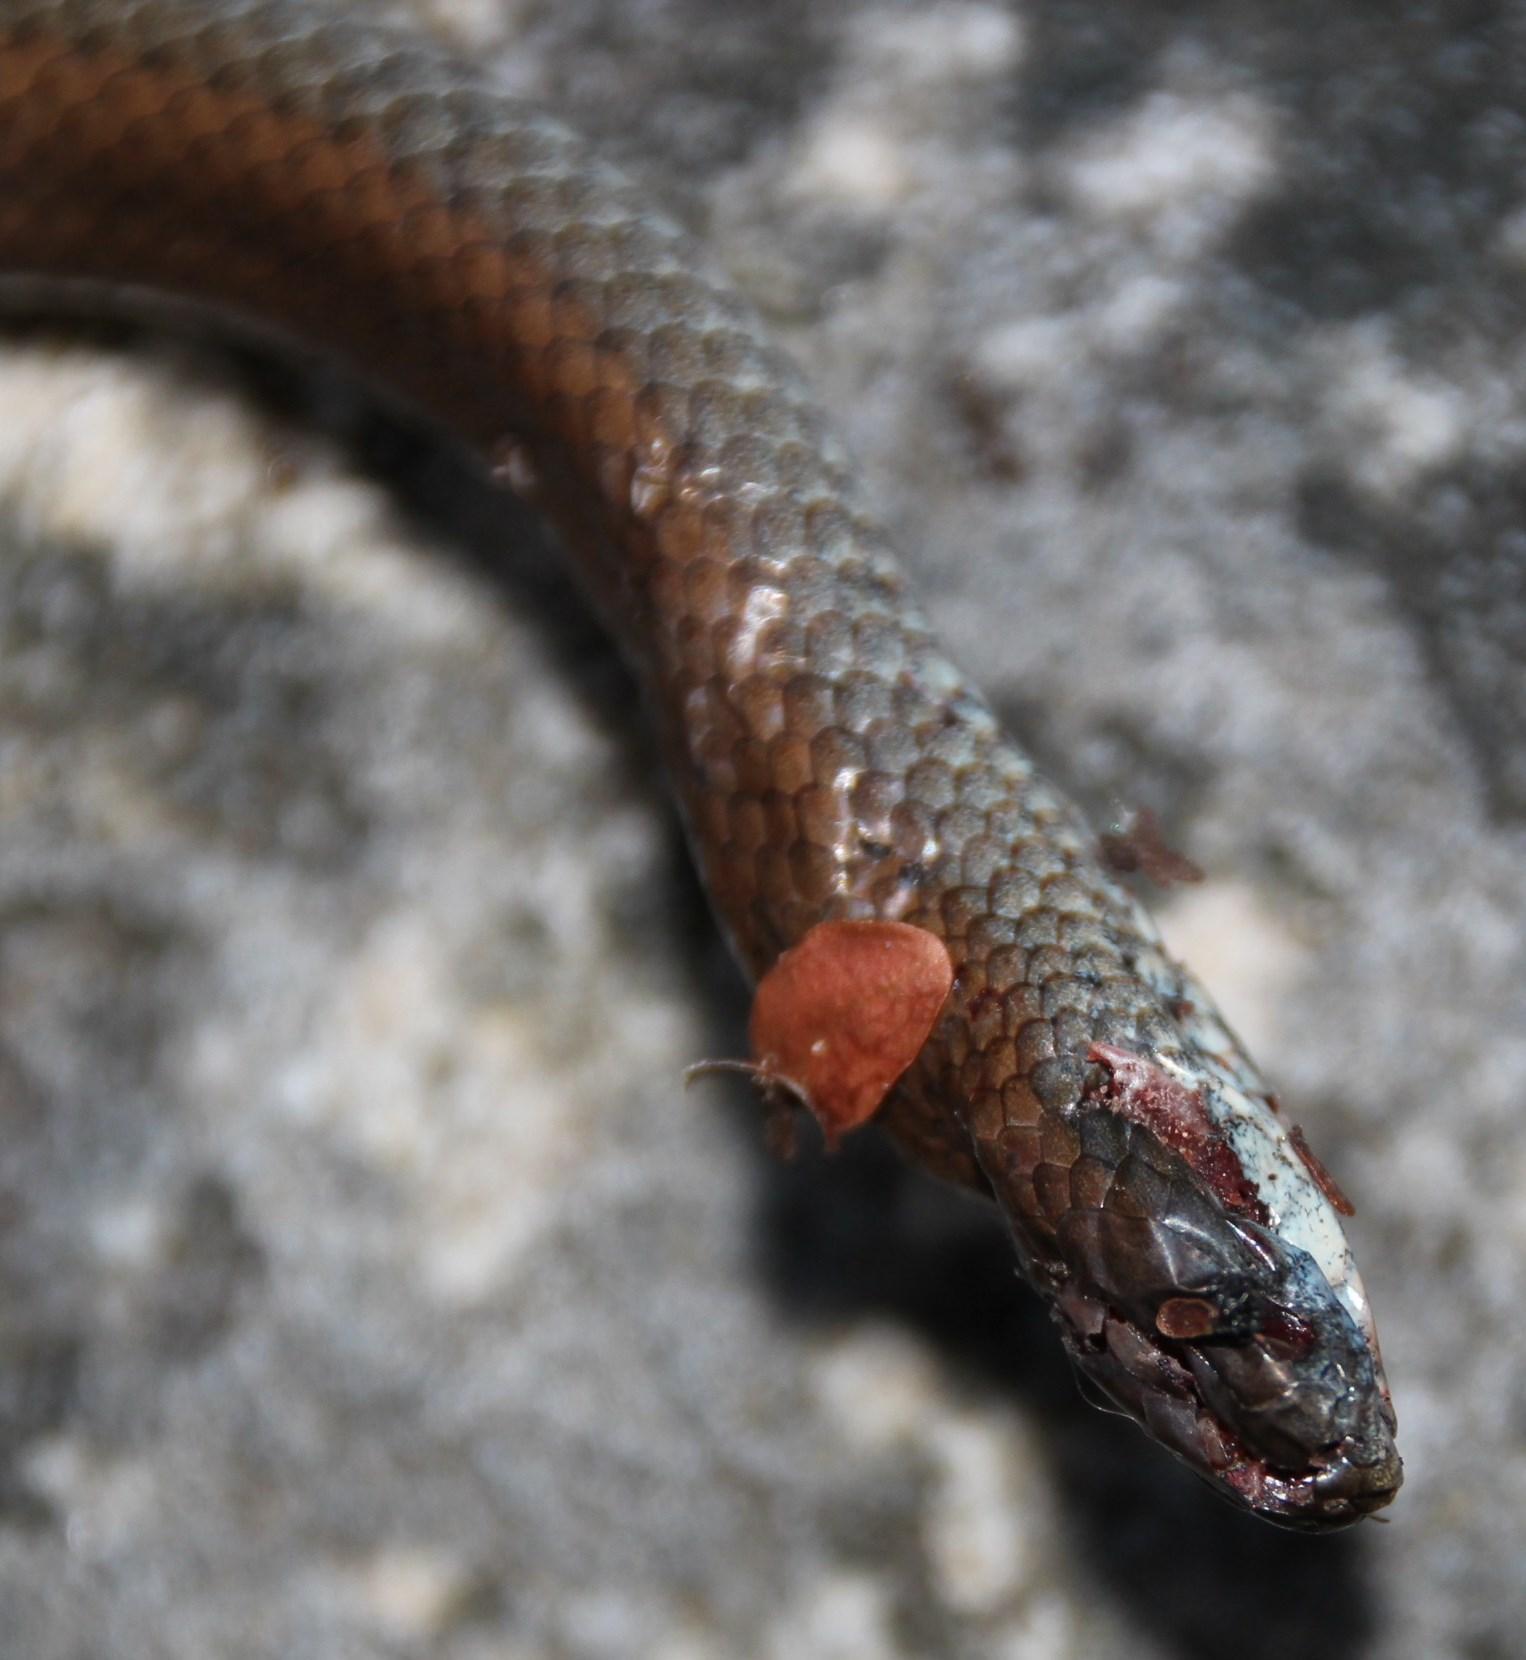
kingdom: Animalia
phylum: Chordata
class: Squamata
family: Pseudoxyrhophiidae
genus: Duberria
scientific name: Duberria lutrix
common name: Common slug eater
